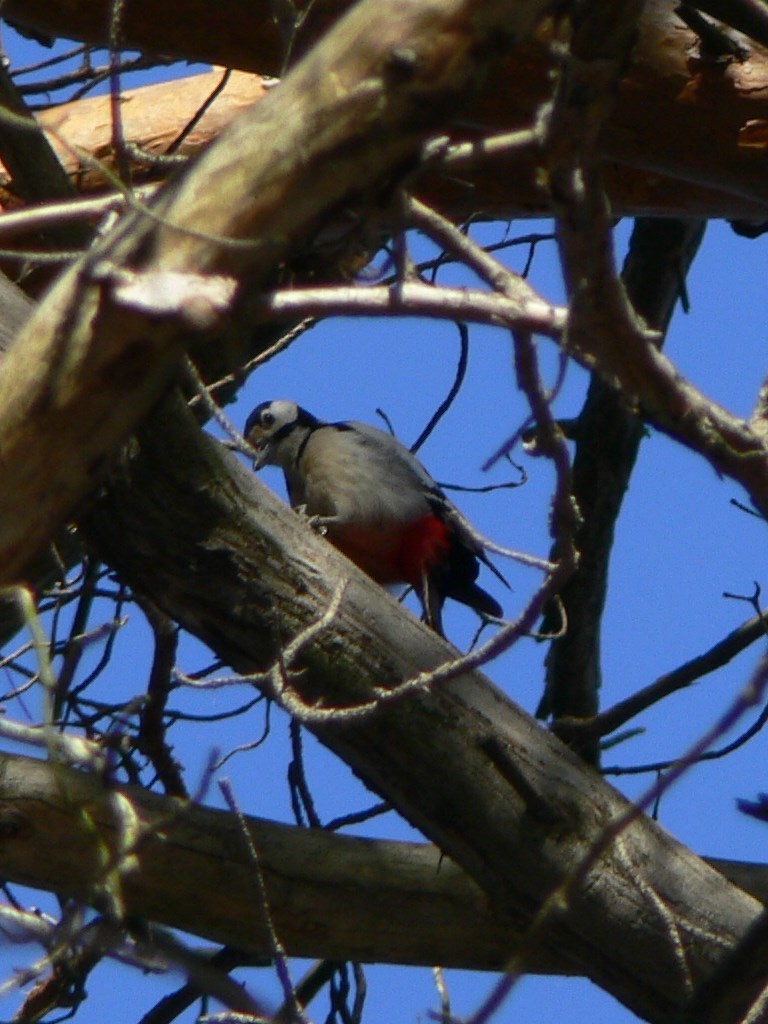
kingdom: Animalia
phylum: Chordata
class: Aves
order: Piciformes
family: Picidae
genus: Dendrocopos
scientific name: Dendrocopos major
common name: Great spotted woodpecker
